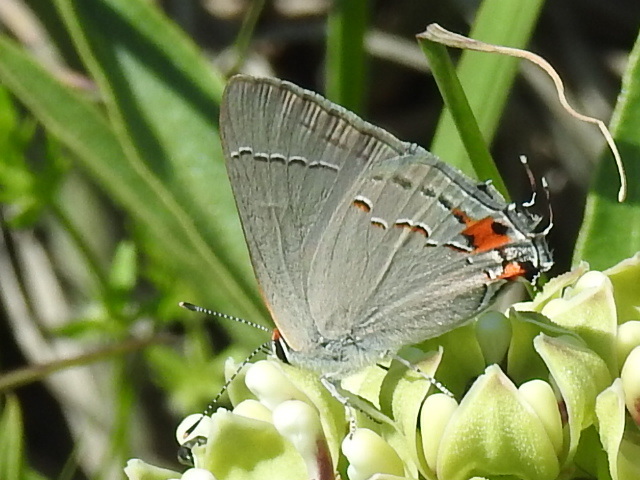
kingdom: Animalia
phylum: Arthropoda
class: Insecta
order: Lepidoptera
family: Lycaenidae
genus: Strymon
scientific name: Strymon melinus
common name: Gray hairstreak
